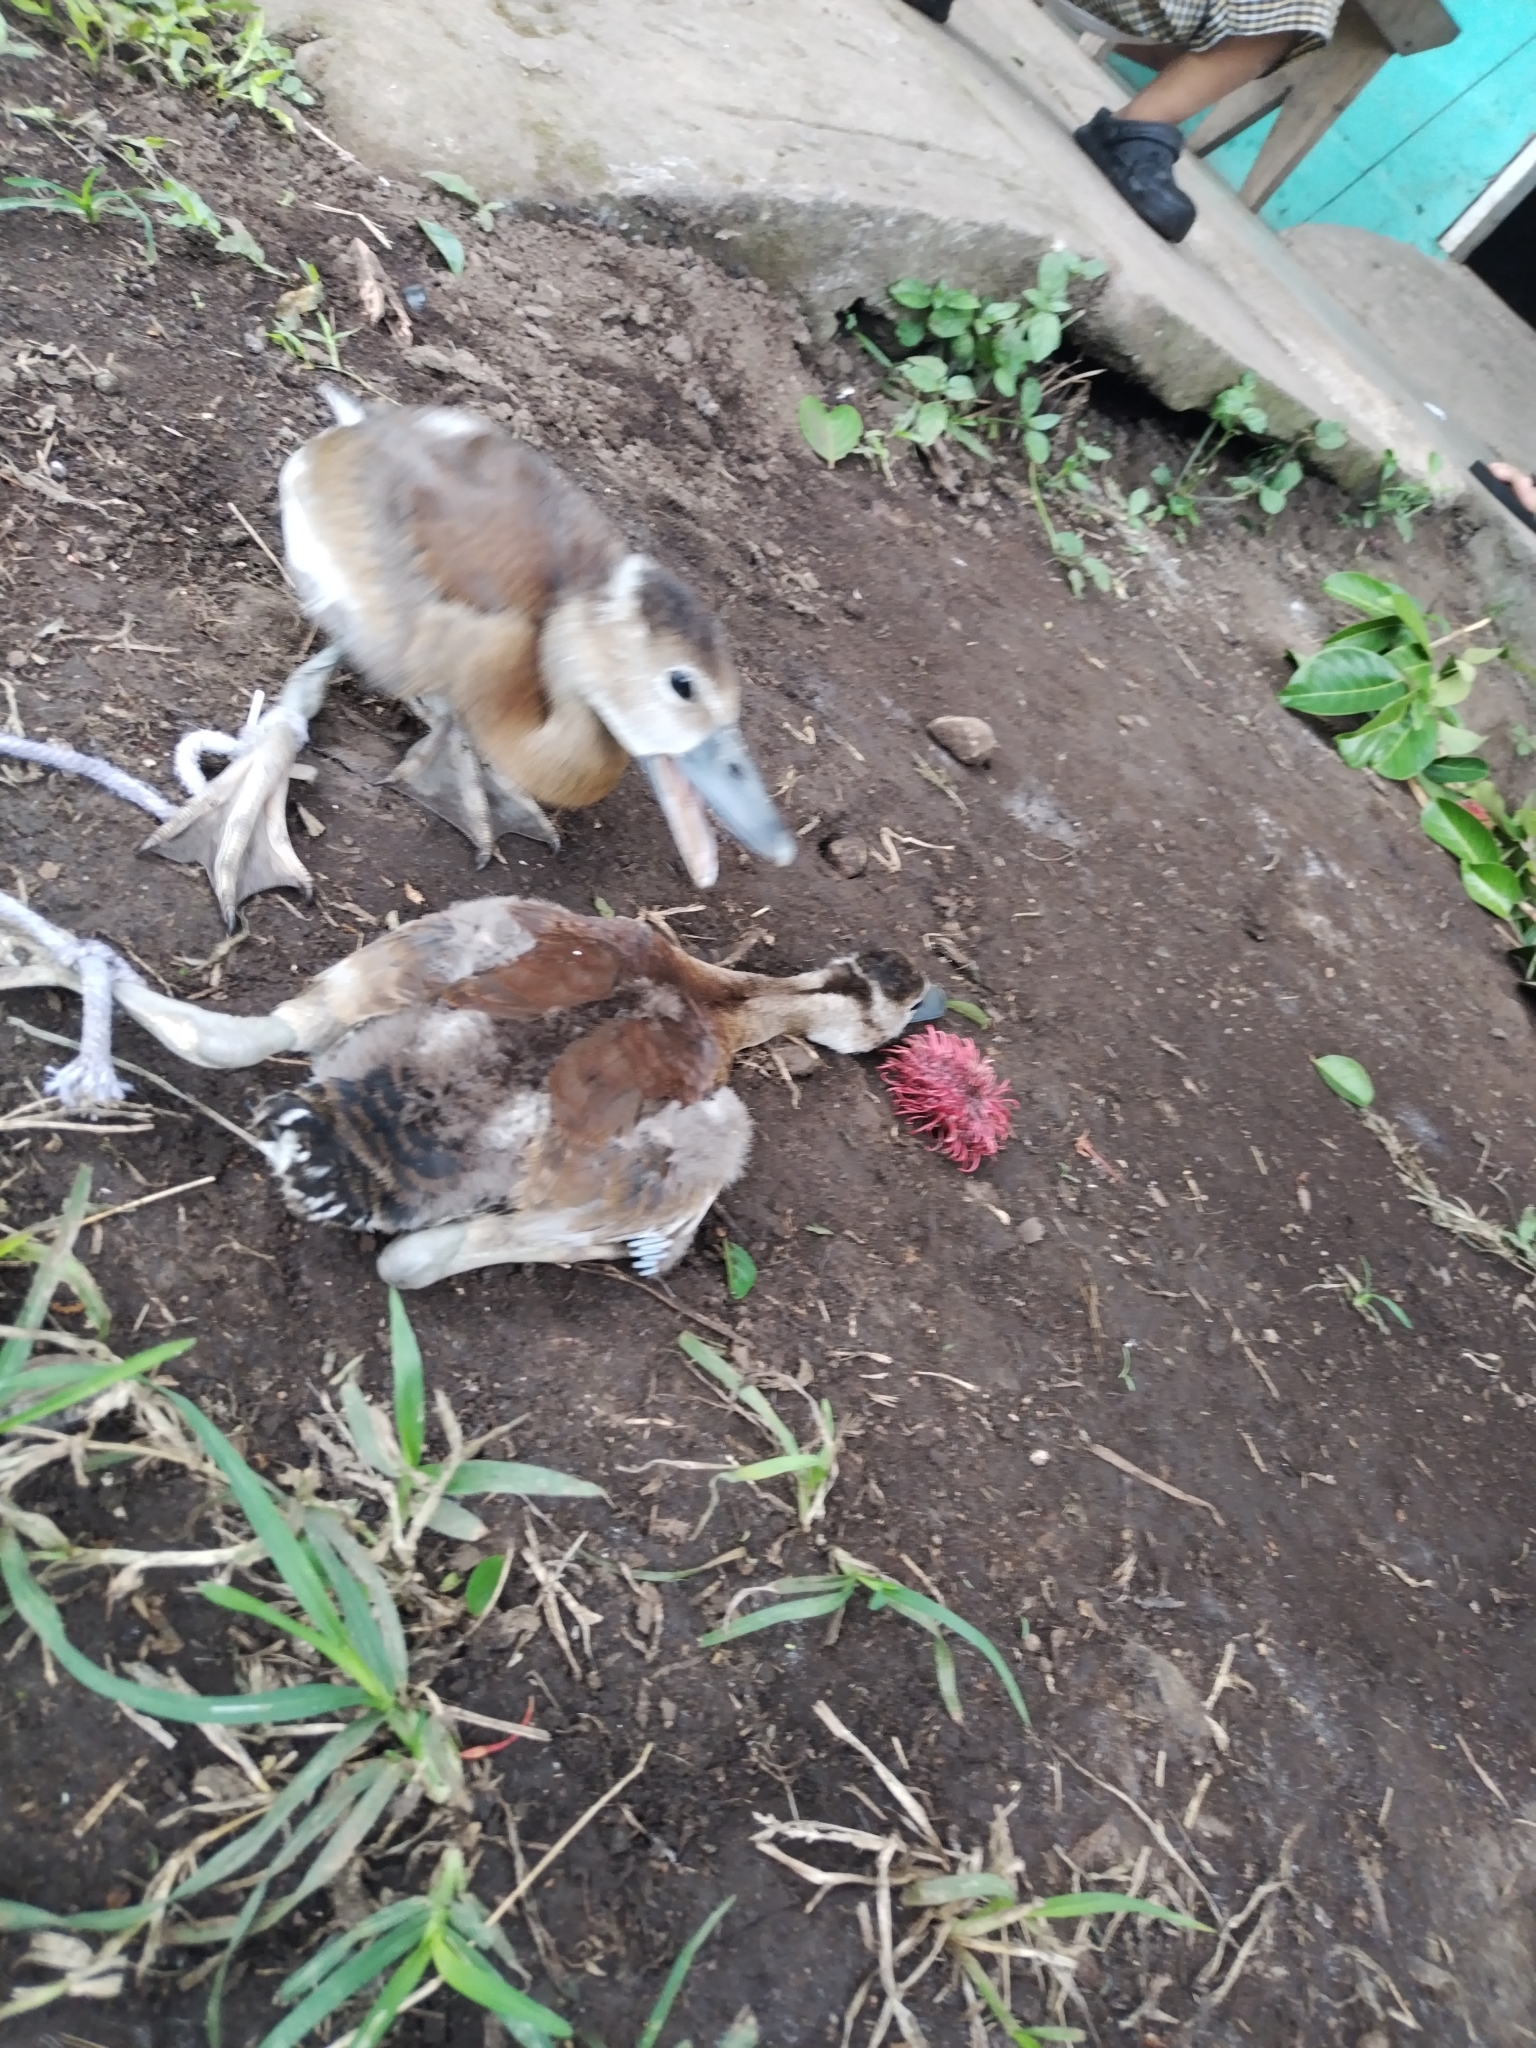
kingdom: Animalia
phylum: Chordata
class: Aves
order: Anseriformes
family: Anatidae
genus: Dendrocygna
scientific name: Dendrocygna autumnalis
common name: Black-bellied whistling duck
